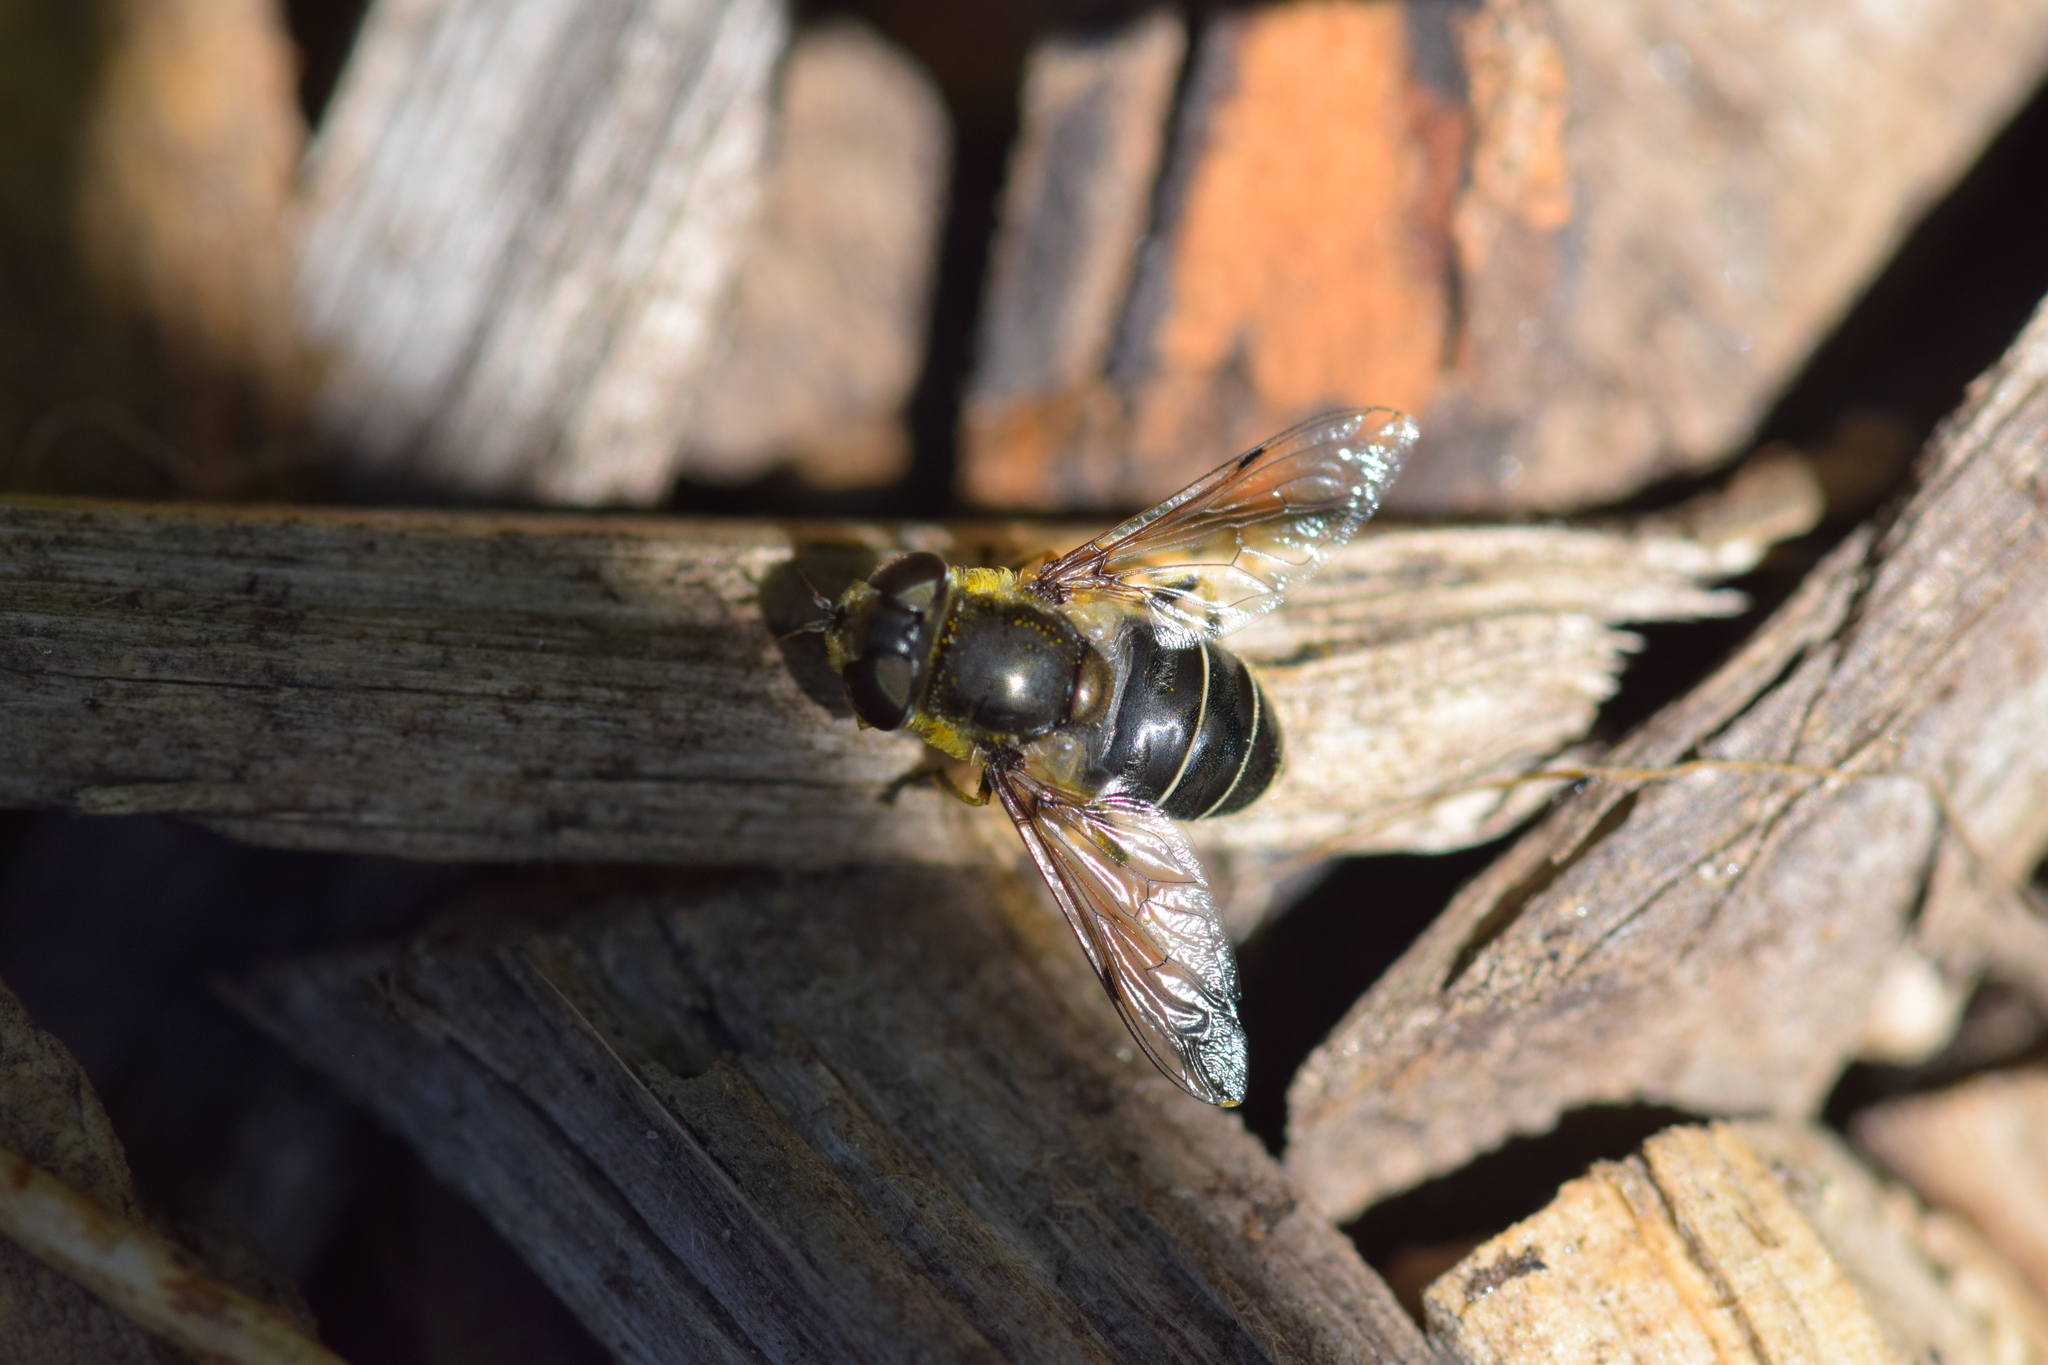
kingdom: Animalia
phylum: Arthropoda
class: Insecta
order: Diptera
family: Syrphidae
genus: Eristalis
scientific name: Eristalis dimidiata
